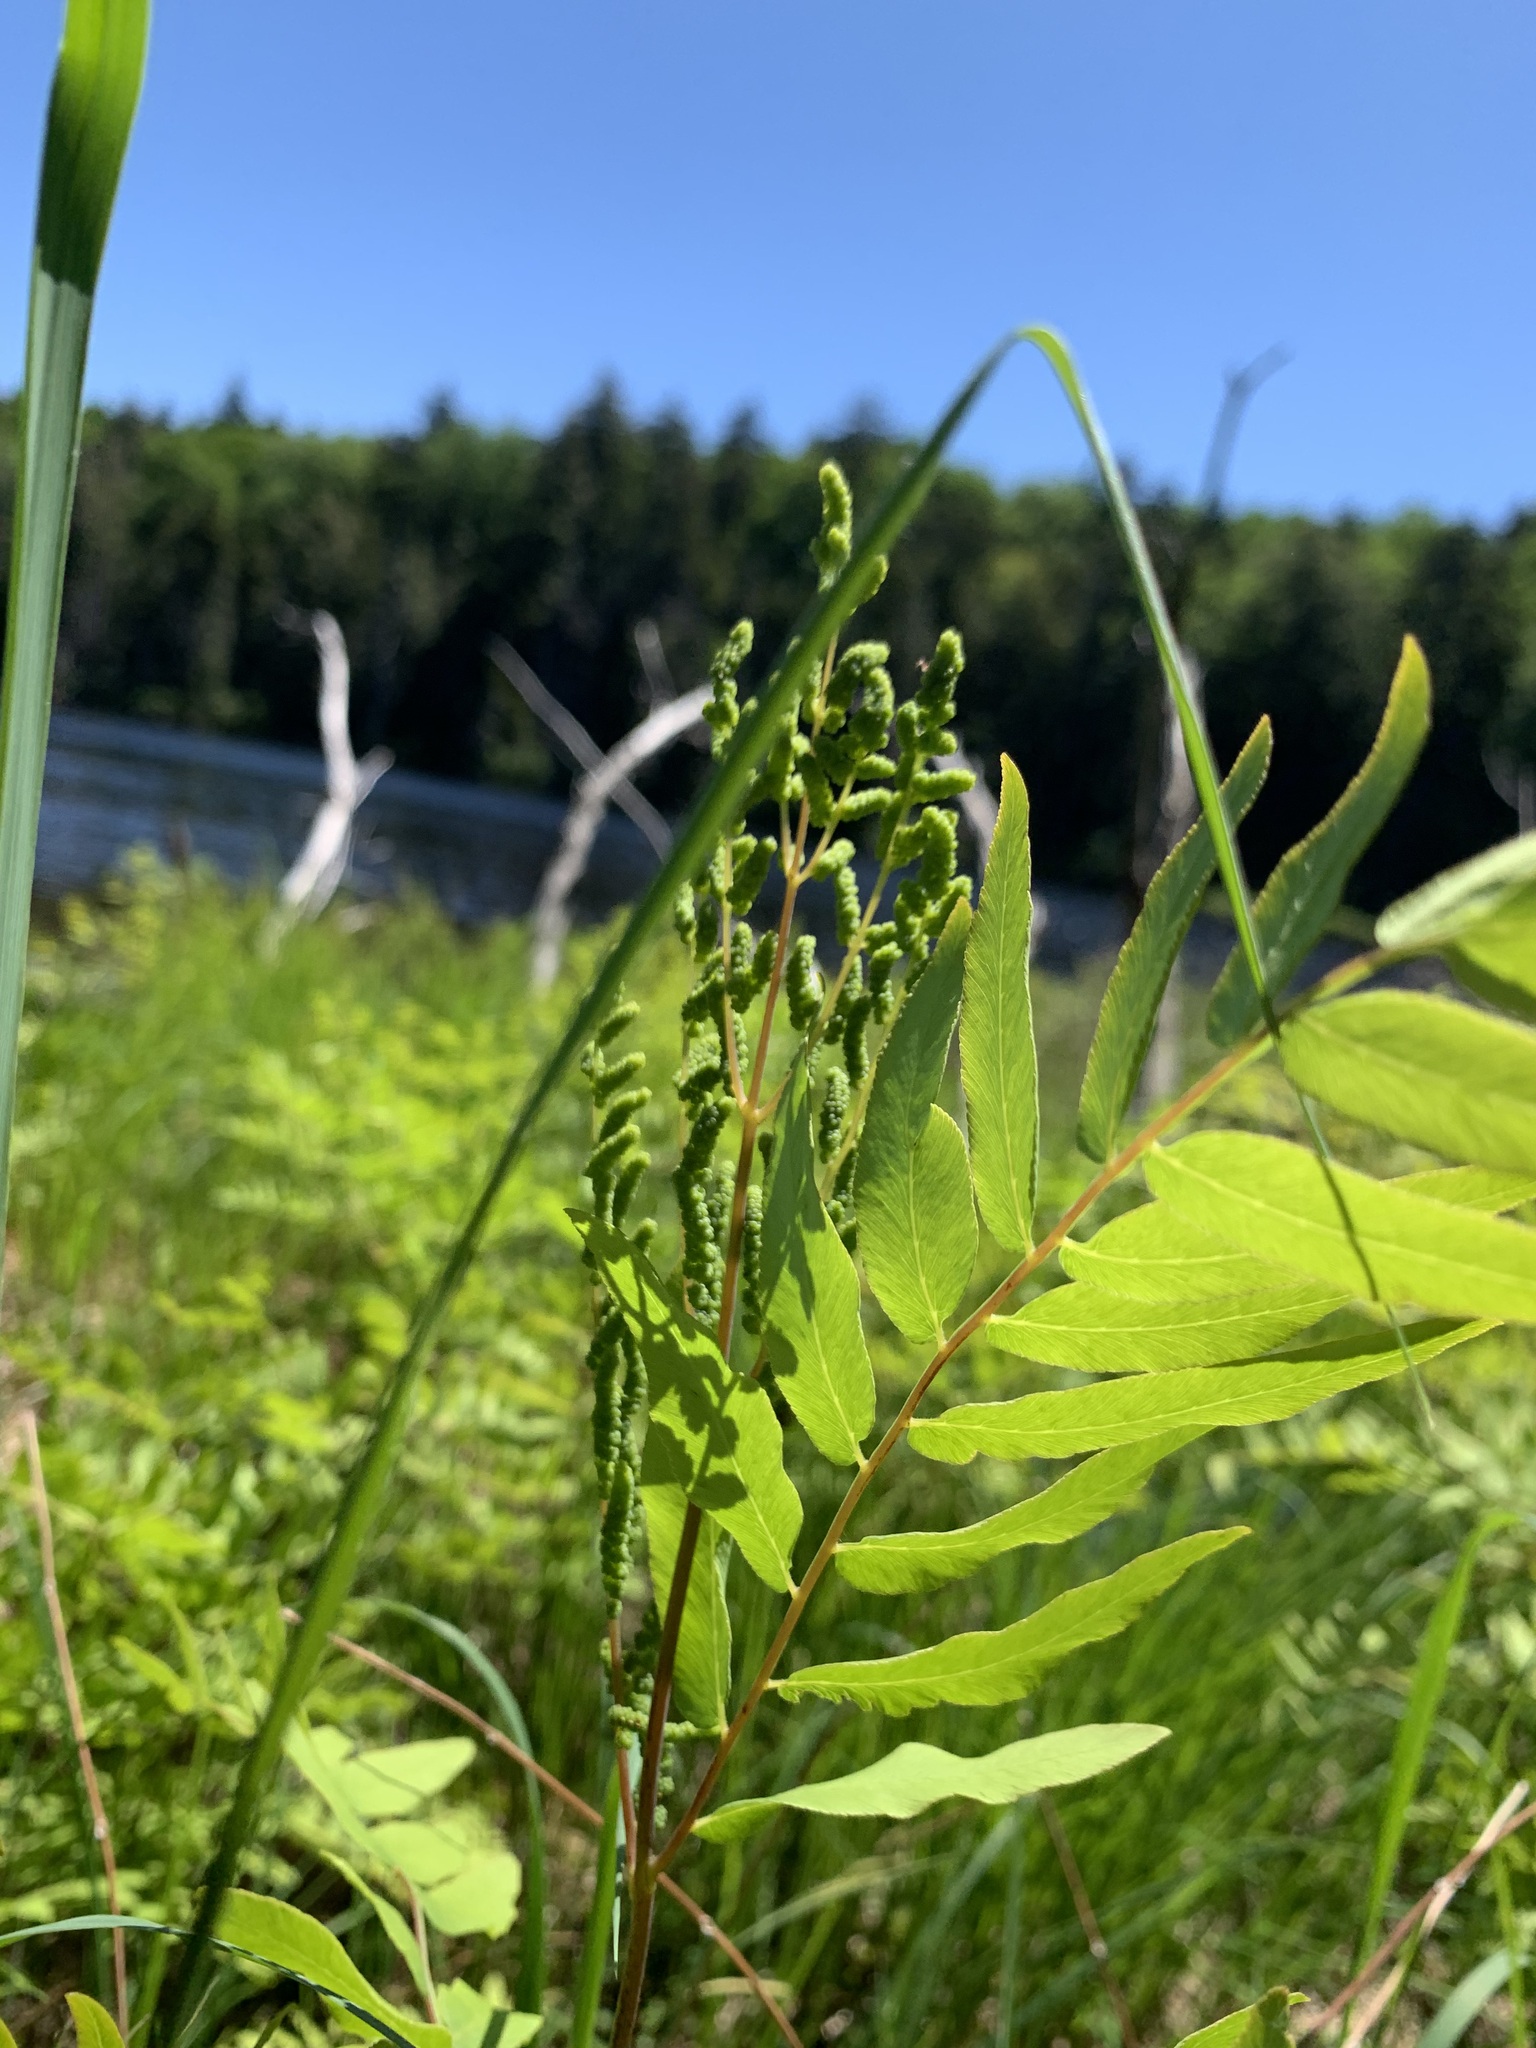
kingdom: Plantae
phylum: Tracheophyta
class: Polypodiopsida
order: Osmundales
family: Osmundaceae
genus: Osmunda
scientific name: Osmunda spectabilis
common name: American royal fern
